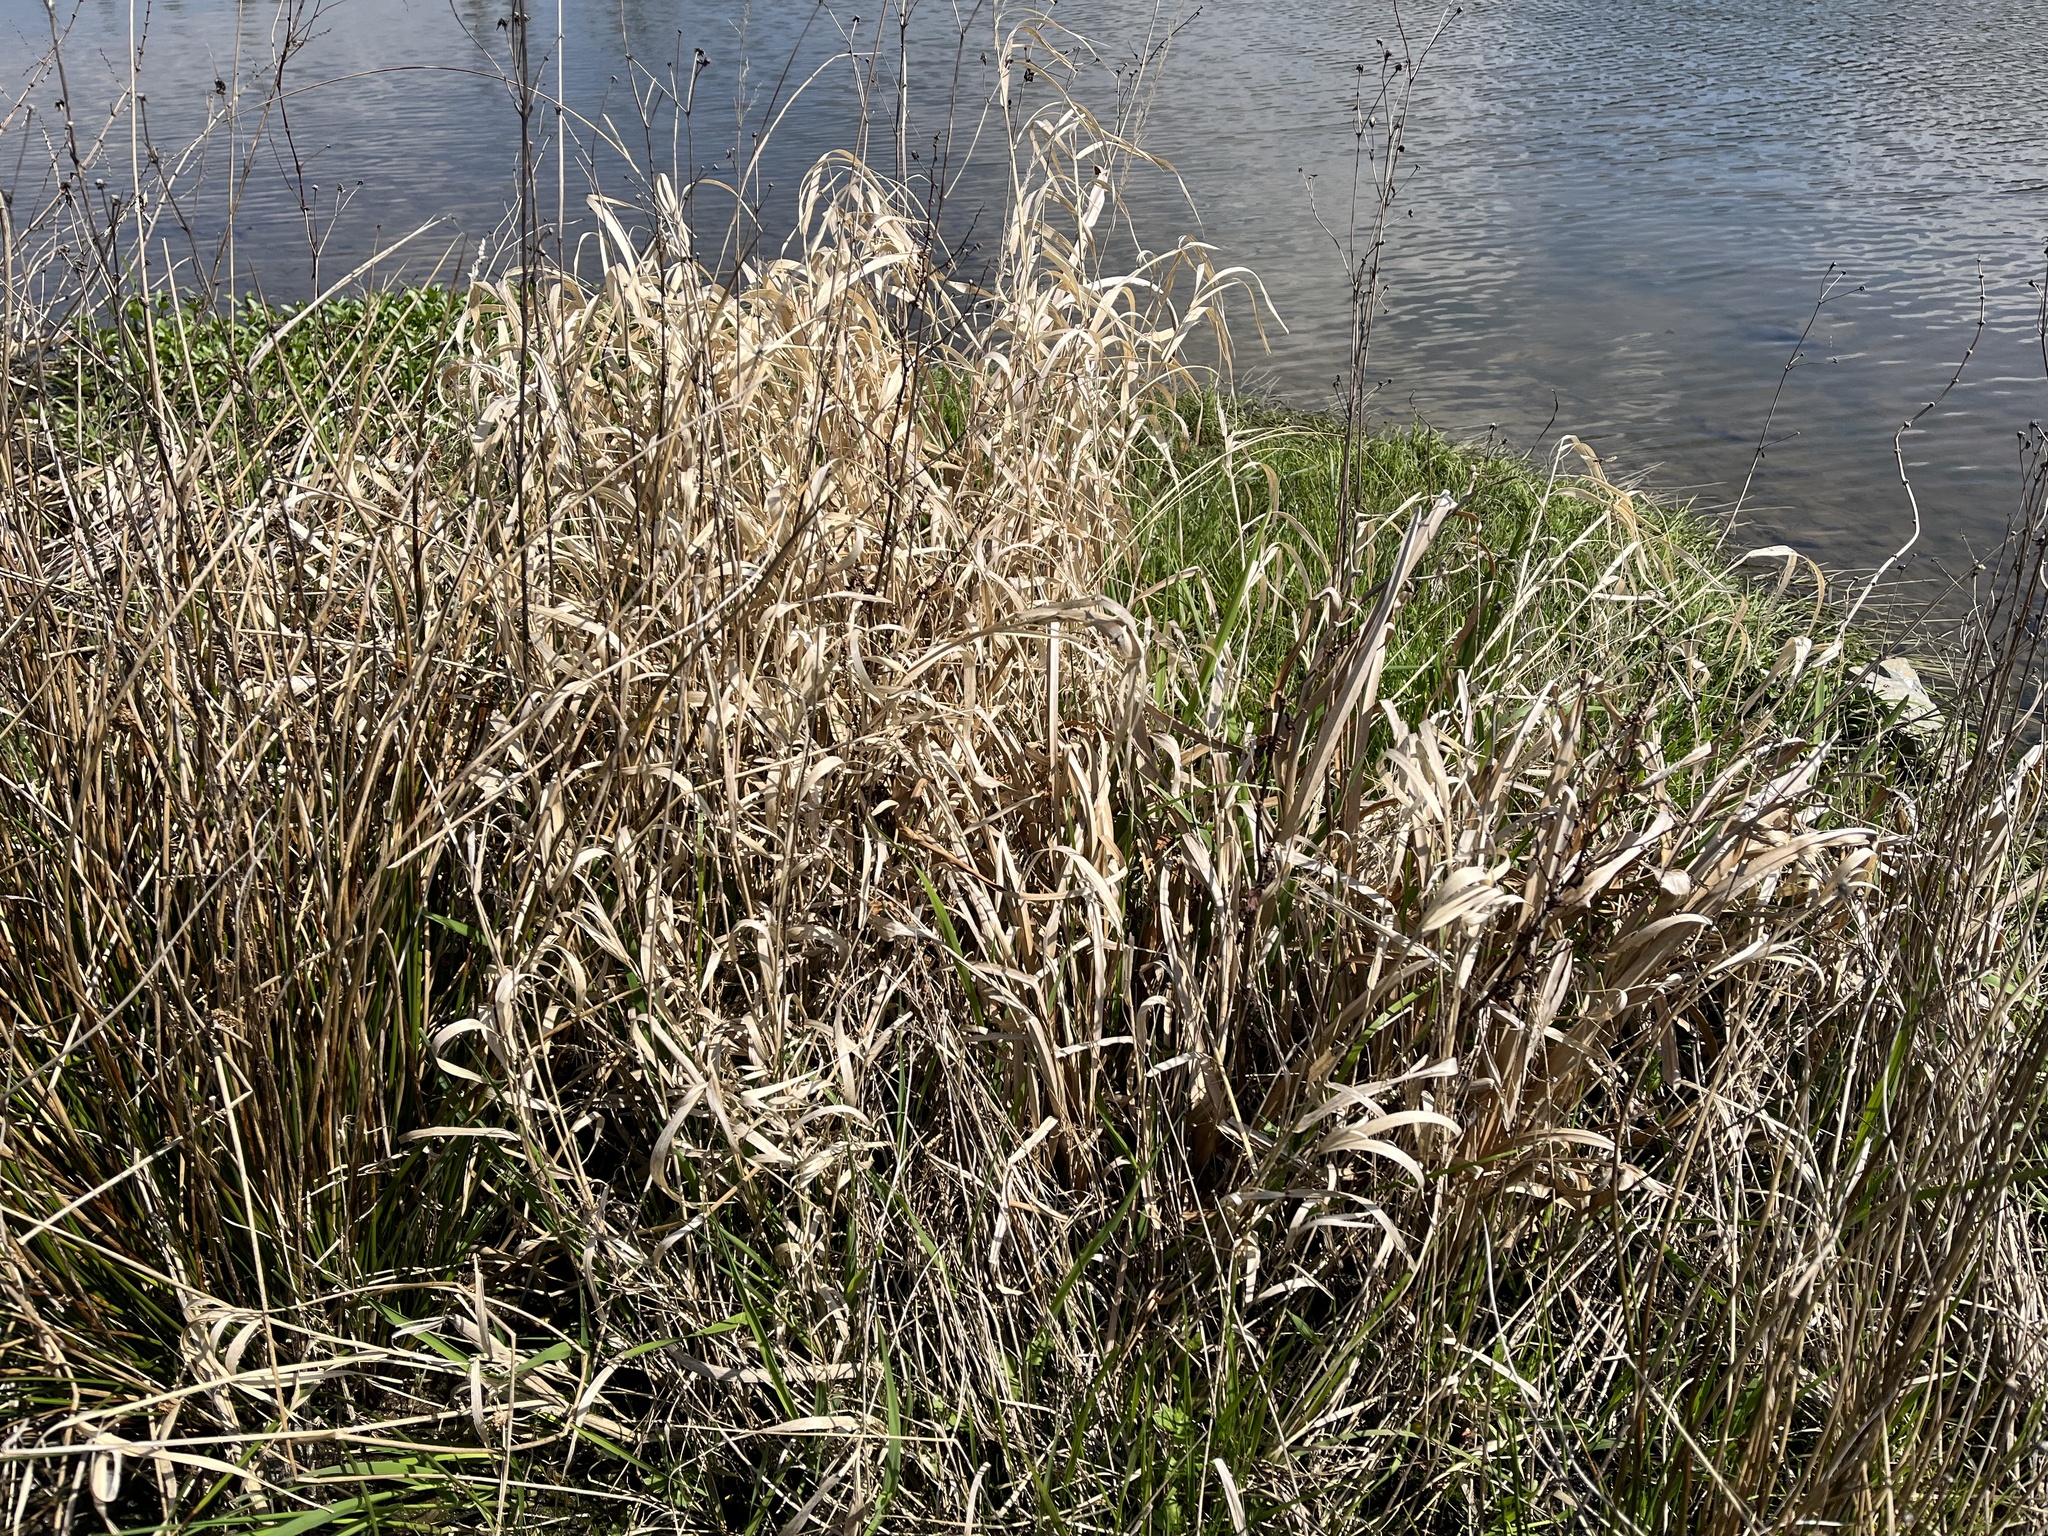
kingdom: Plantae
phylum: Tracheophyta
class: Liliopsida
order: Poales
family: Poaceae
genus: Phalaris
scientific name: Phalaris arundinacea
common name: Reed canary-grass
